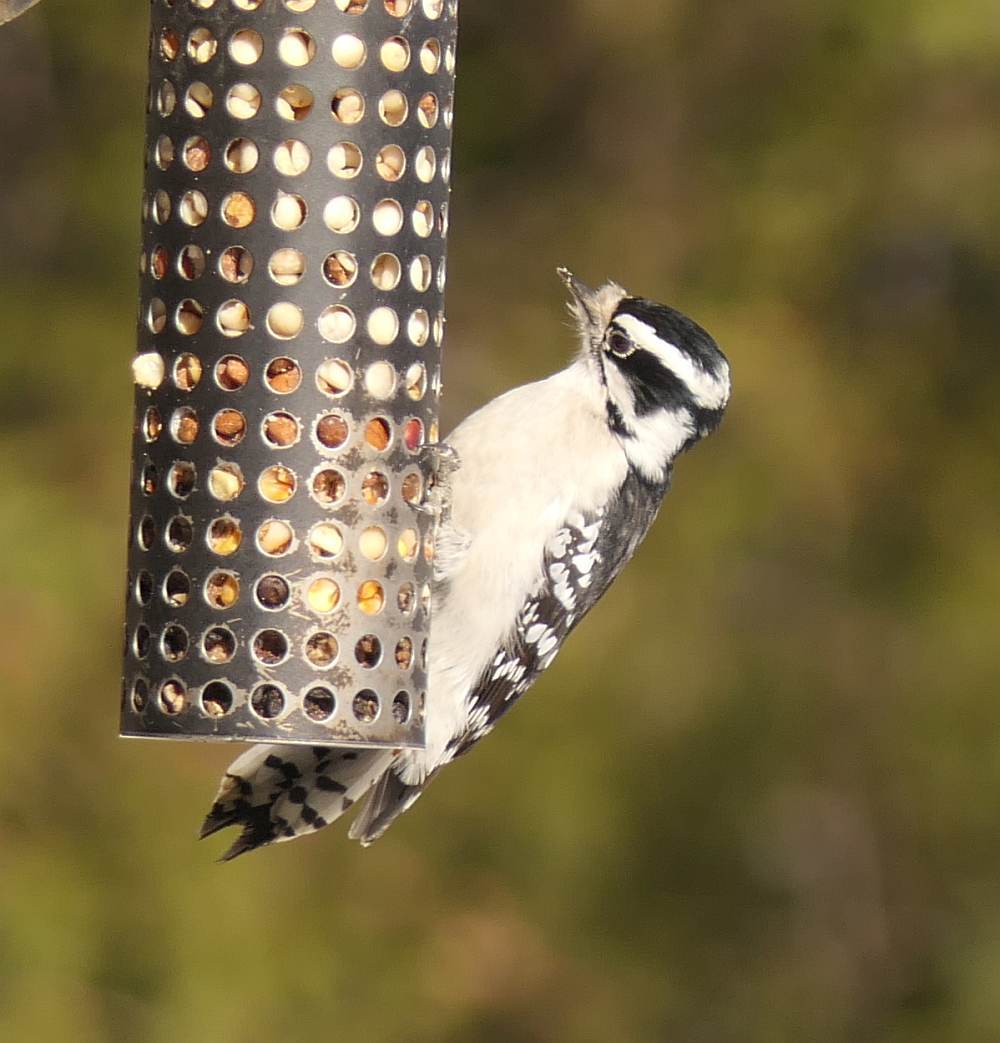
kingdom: Animalia
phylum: Chordata
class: Aves
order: Piciformes
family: Picidae
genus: Dryobates
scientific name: Dryobates pubescens
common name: Downy woodpecker
